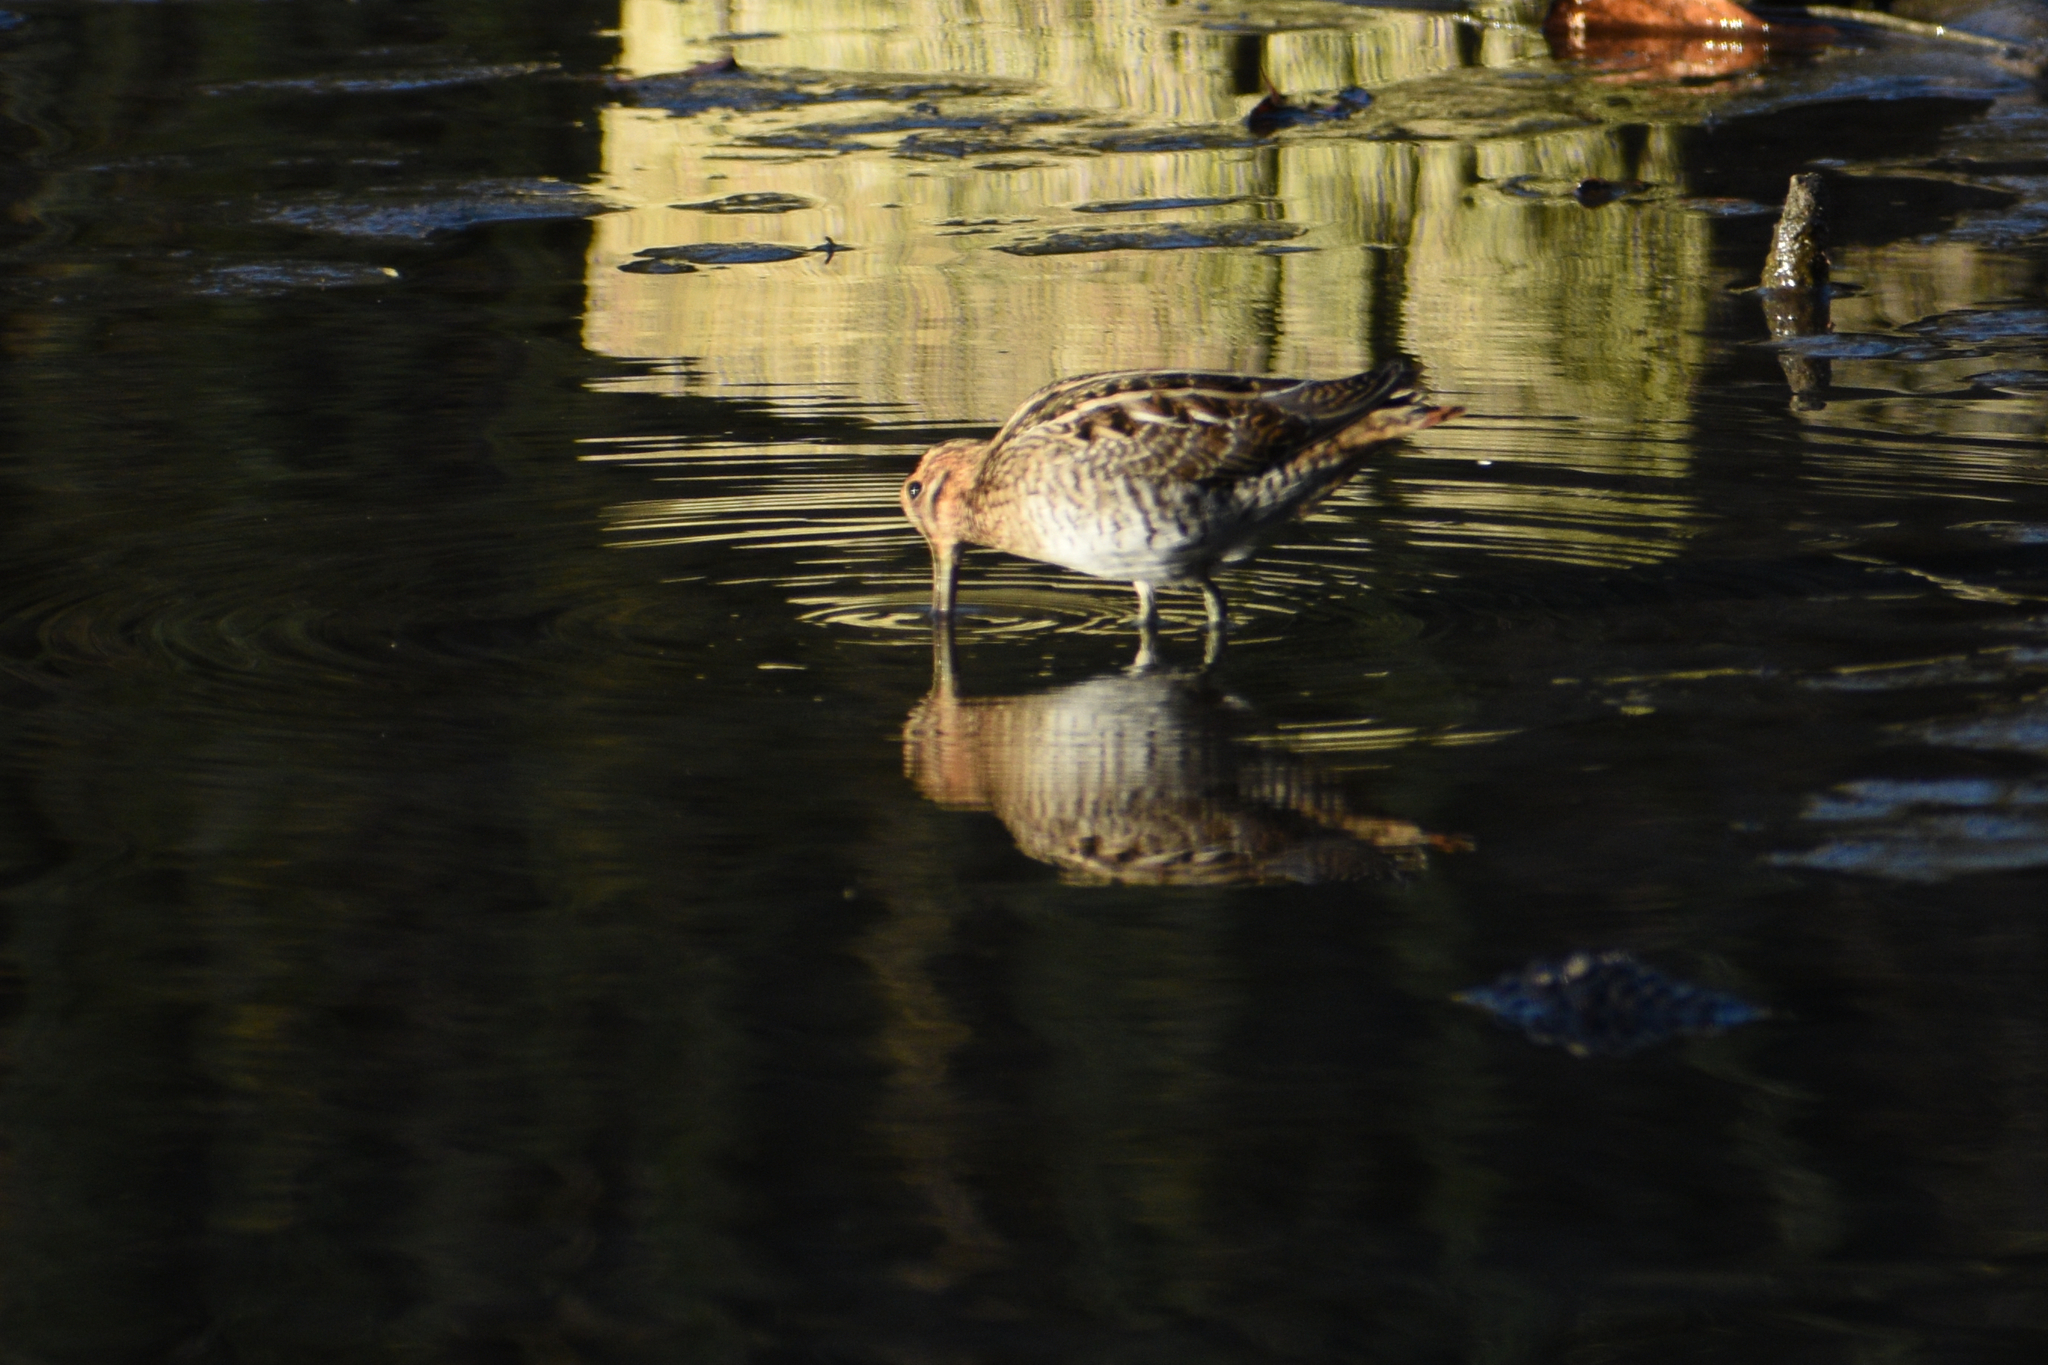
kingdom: Animalia
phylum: Chordata
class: Aves
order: Charadriiformes
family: Scolopacidae
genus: Gallinago
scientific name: Gallinago delicata
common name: Wilson's snipe
